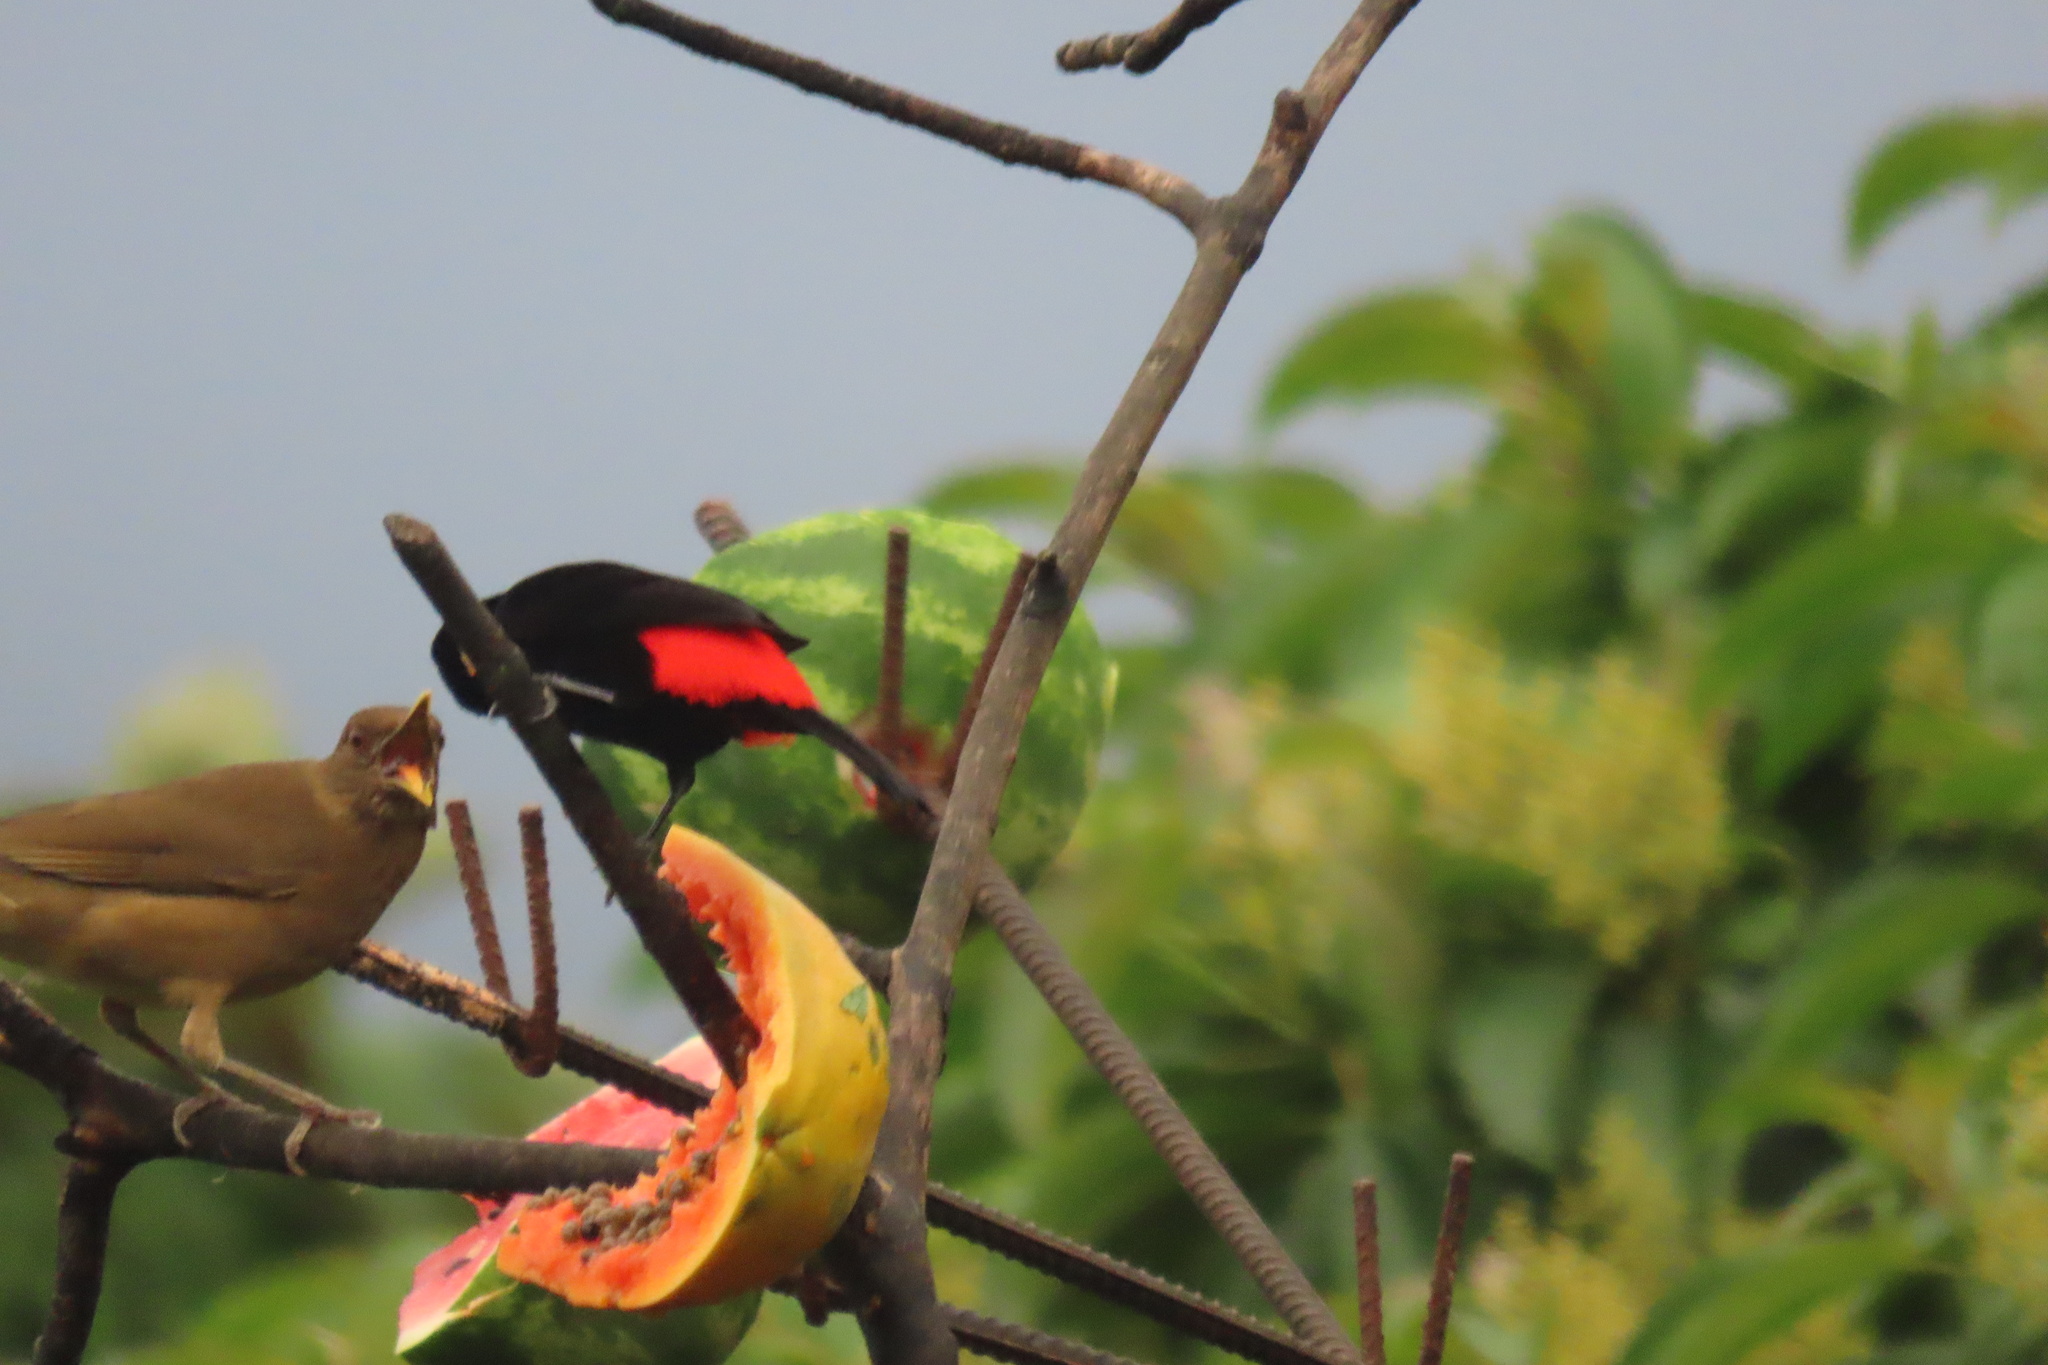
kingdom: Animalia
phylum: Chordata
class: Aves
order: Passeriformes
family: Thraupidae
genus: Ramphocelus
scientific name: Ramphocelus passerinii
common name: Passerini's tanager
